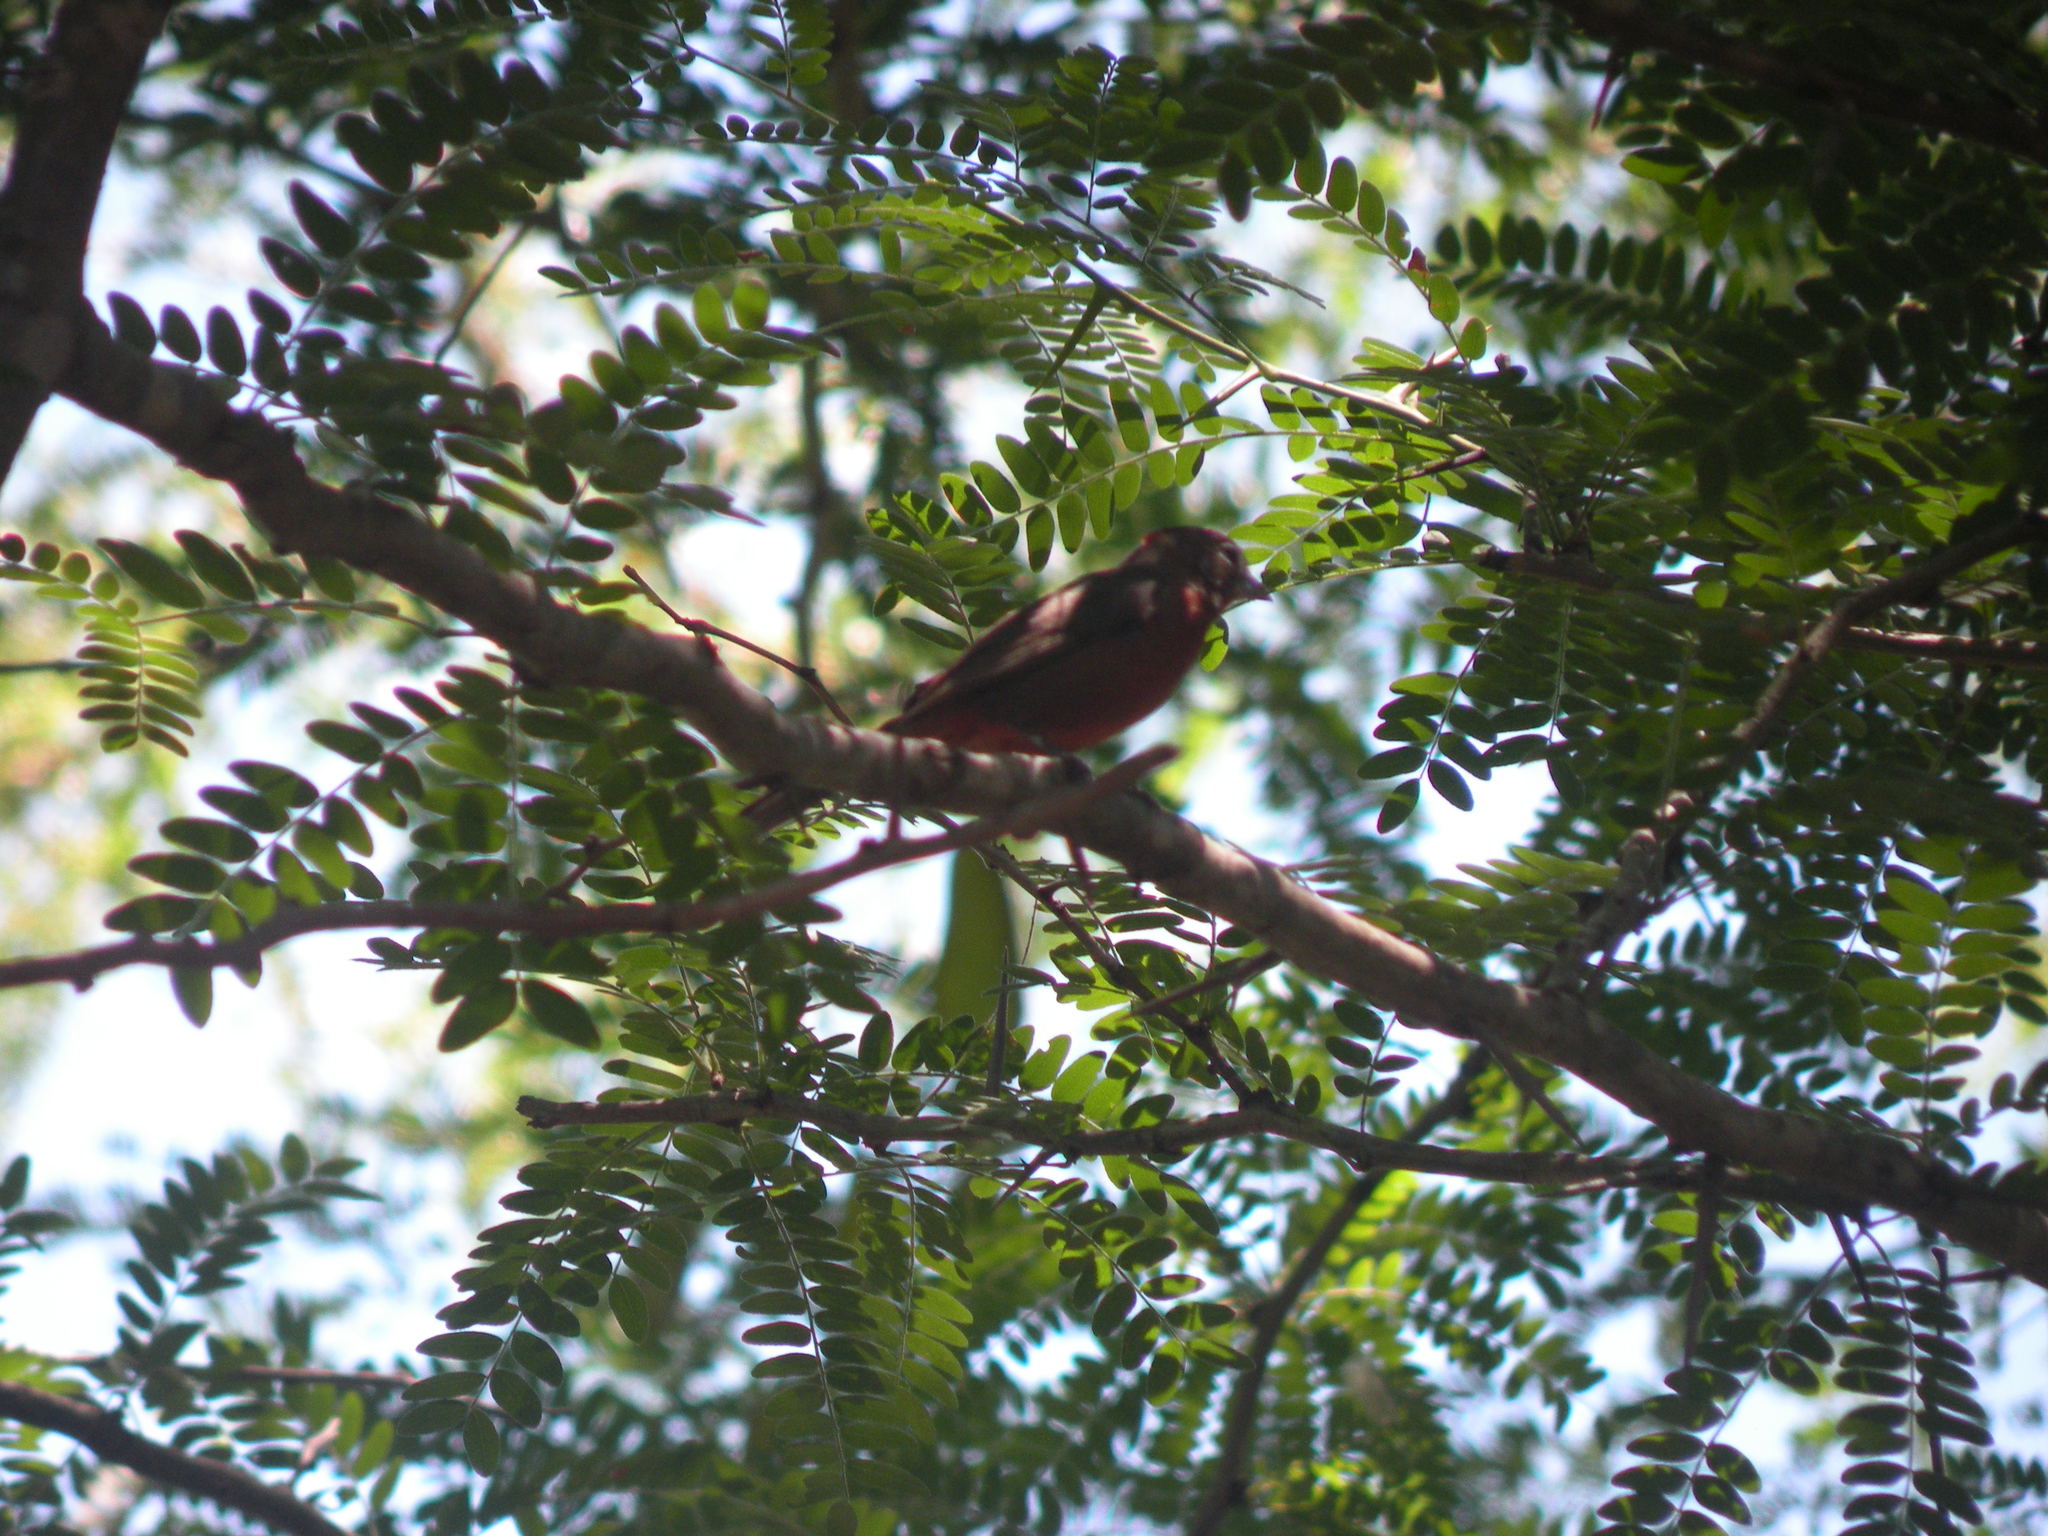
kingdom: Animalia
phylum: Chordata
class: Aves
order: Passeriformes
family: Thraupidae
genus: Coryphospingus
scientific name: Coryphospingus cucullatus
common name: Red pileated finch
